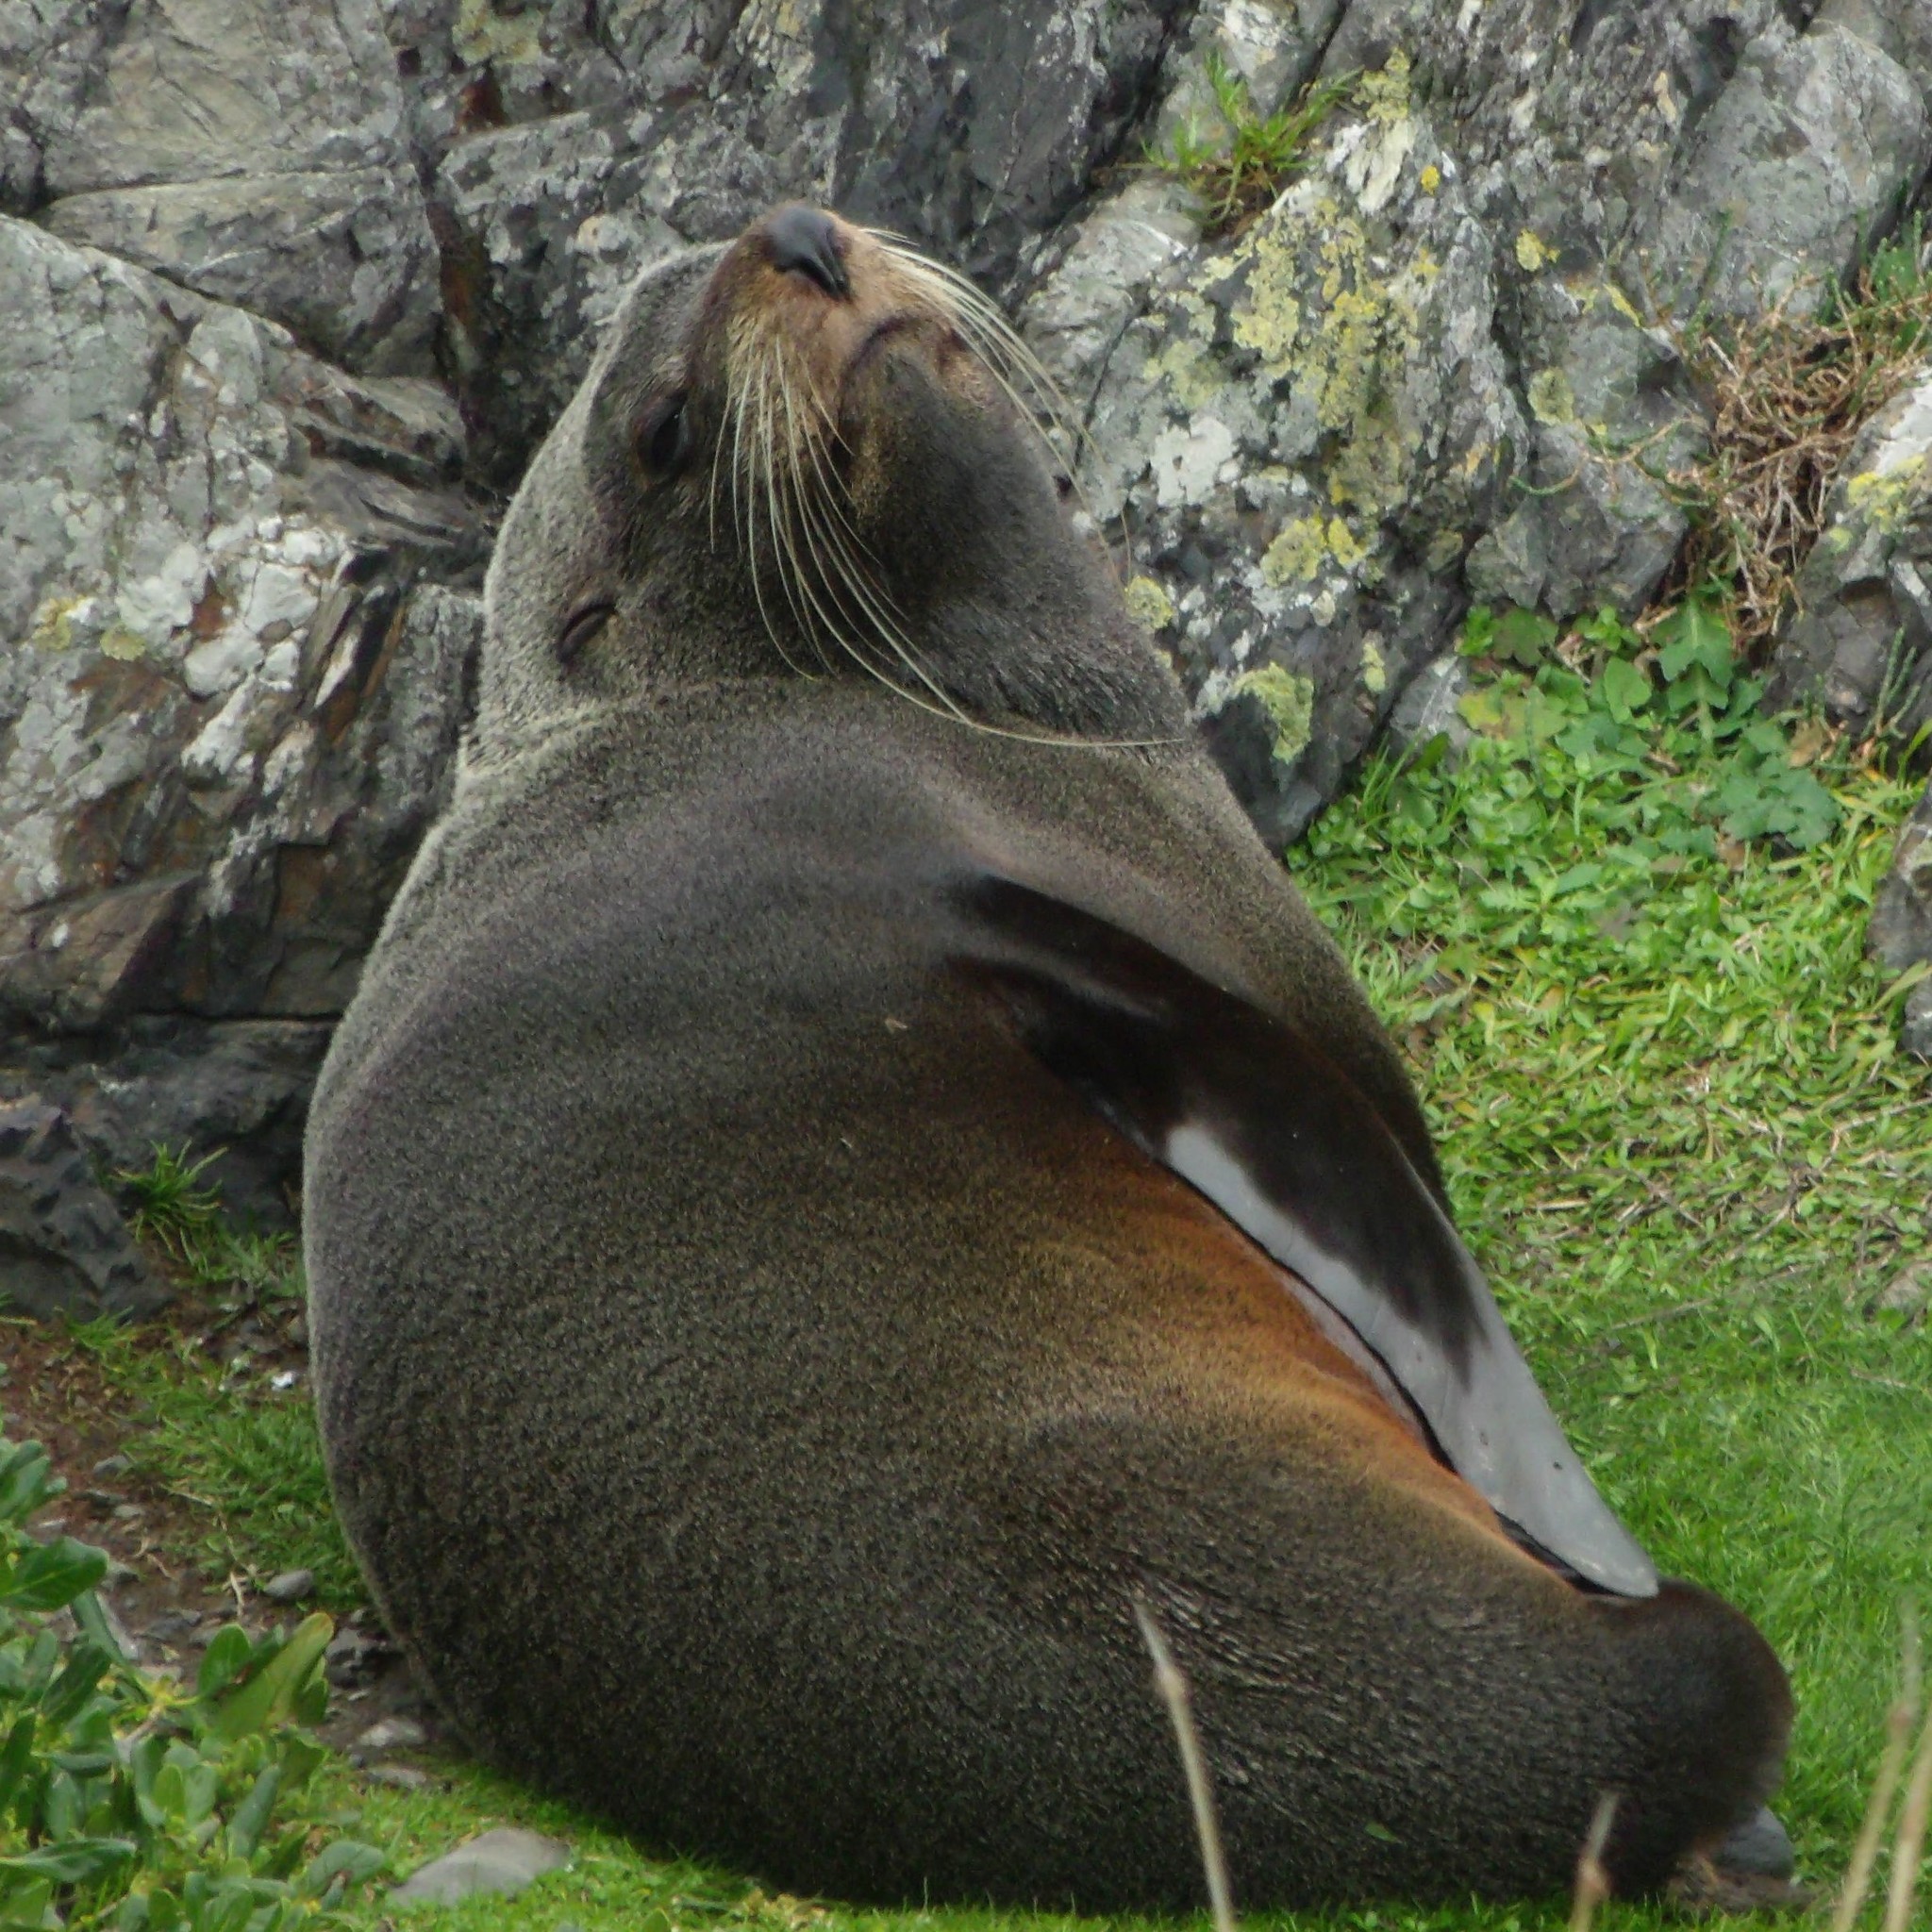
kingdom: Animalia
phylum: Chordata
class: Mammalia
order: Carnivora
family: Otariidae
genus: Arctocephalus
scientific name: Arctocephalus forsteri
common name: New zealand fur seal
